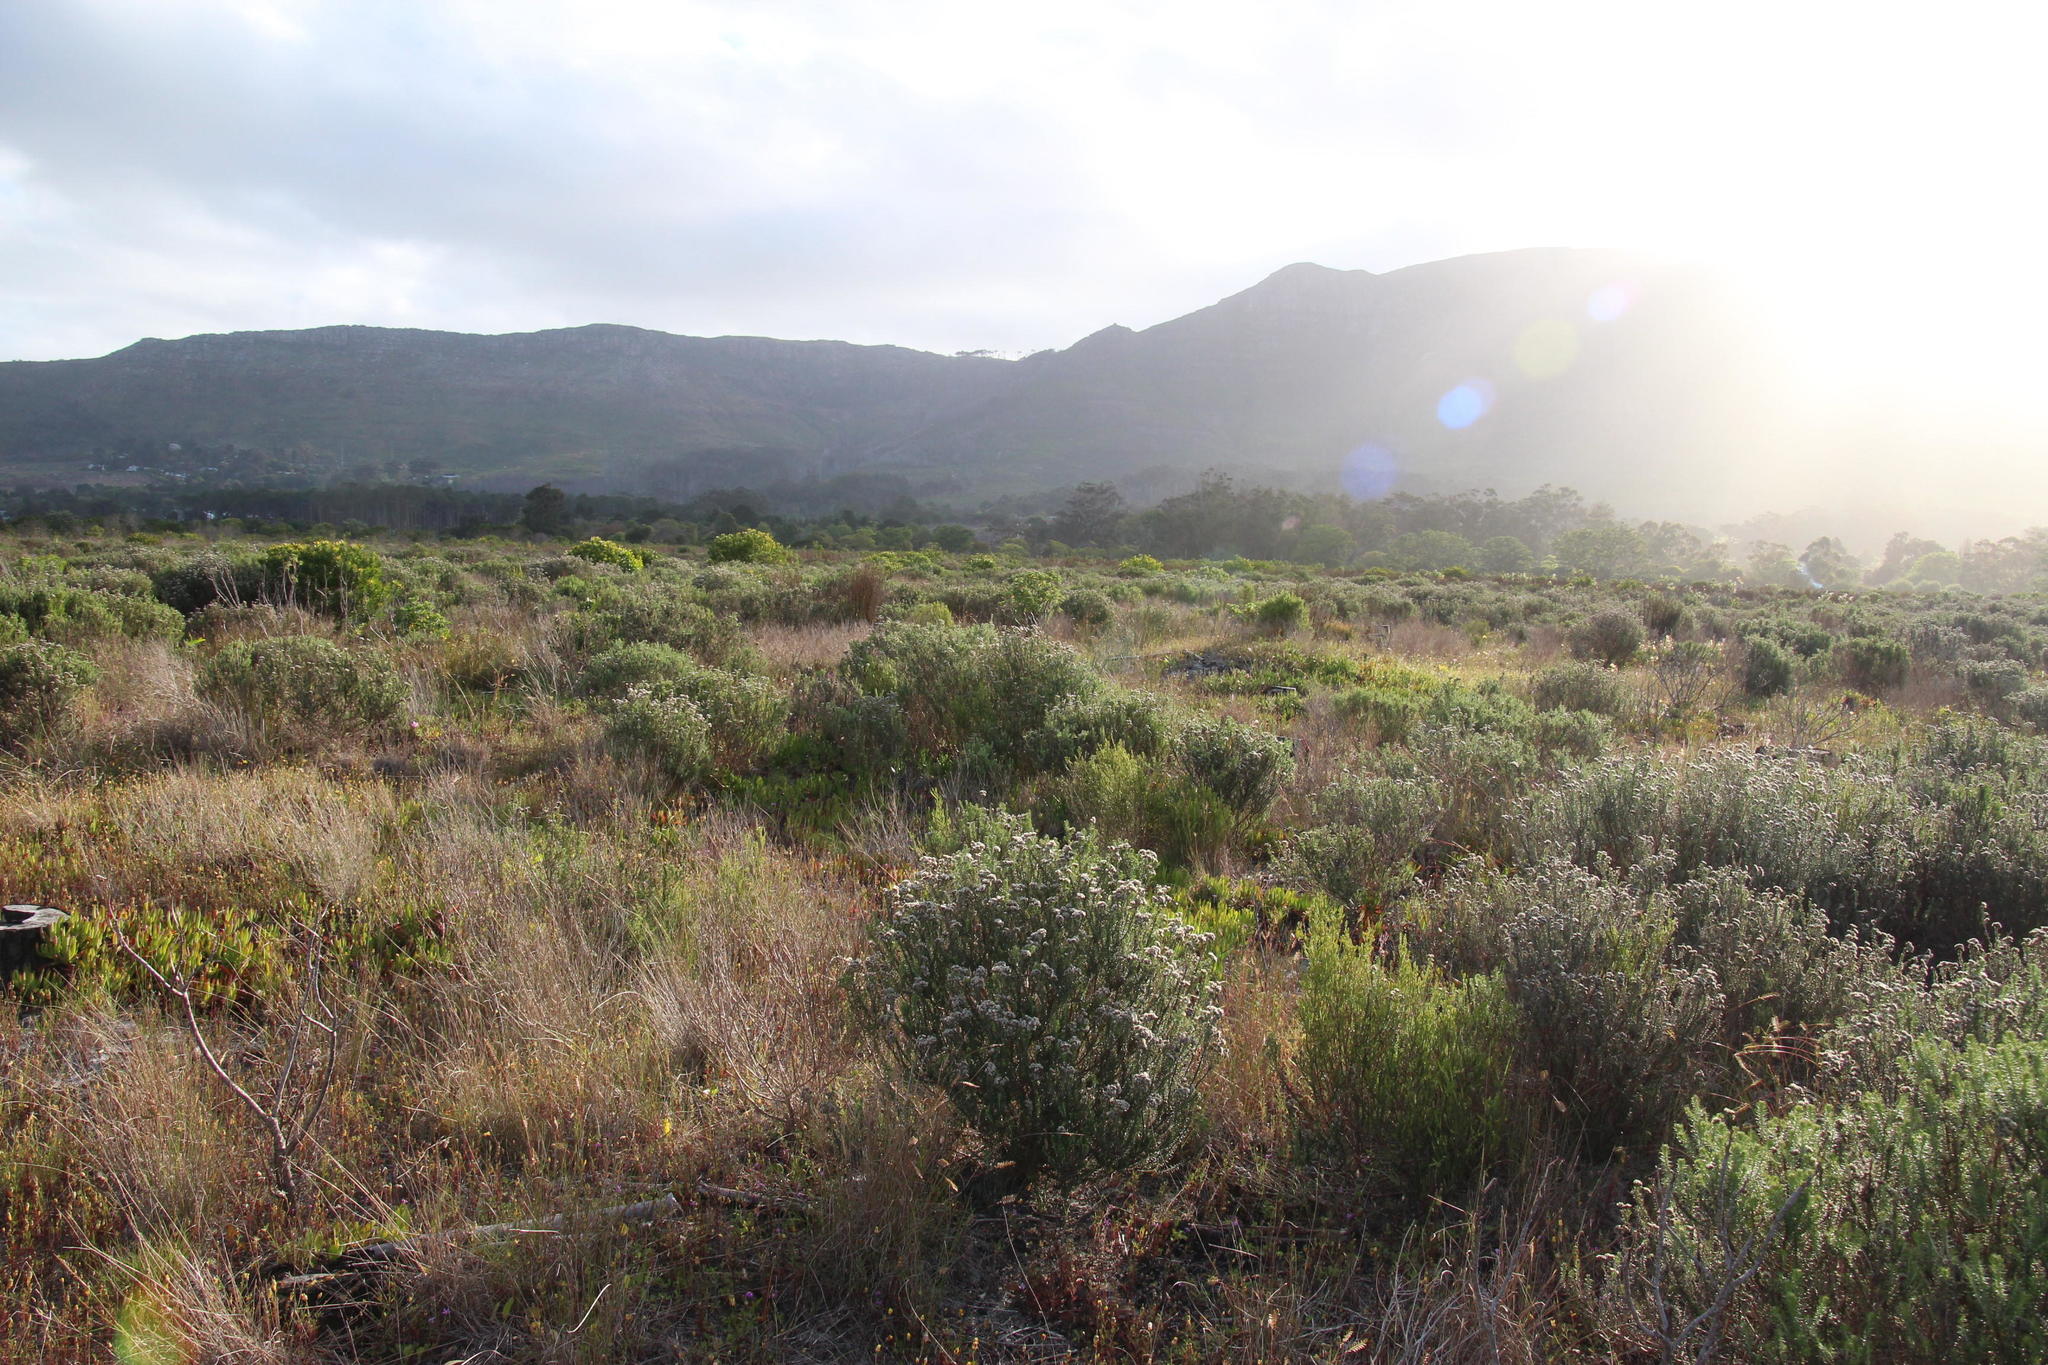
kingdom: Plantae
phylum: Tracheophyta
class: Magnoliopsida
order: Asterales
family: Asteraceae
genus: Metalasia
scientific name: Metalasia densa
